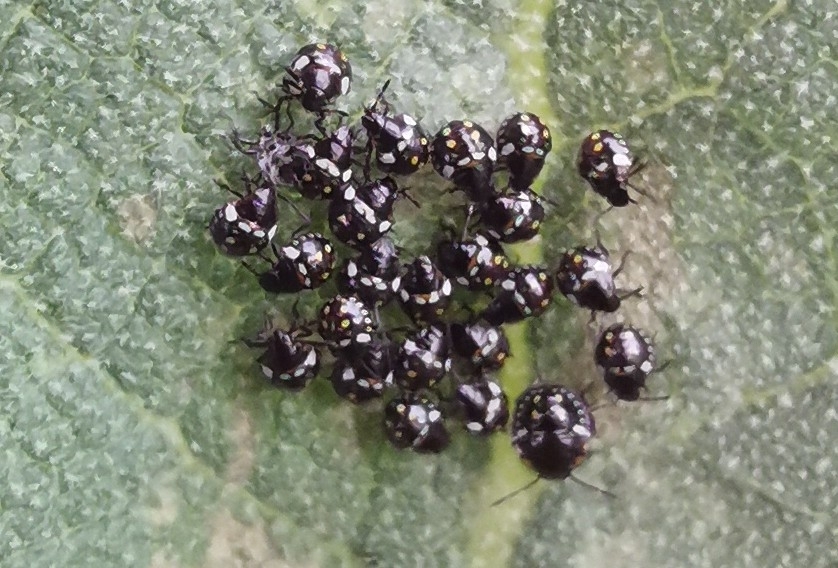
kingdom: Animalia
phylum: Arthropoda
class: Insecta
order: Hemiptera
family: Pentatomidae
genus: Nezara
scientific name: Nezara viridula
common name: Southern green stink bug
